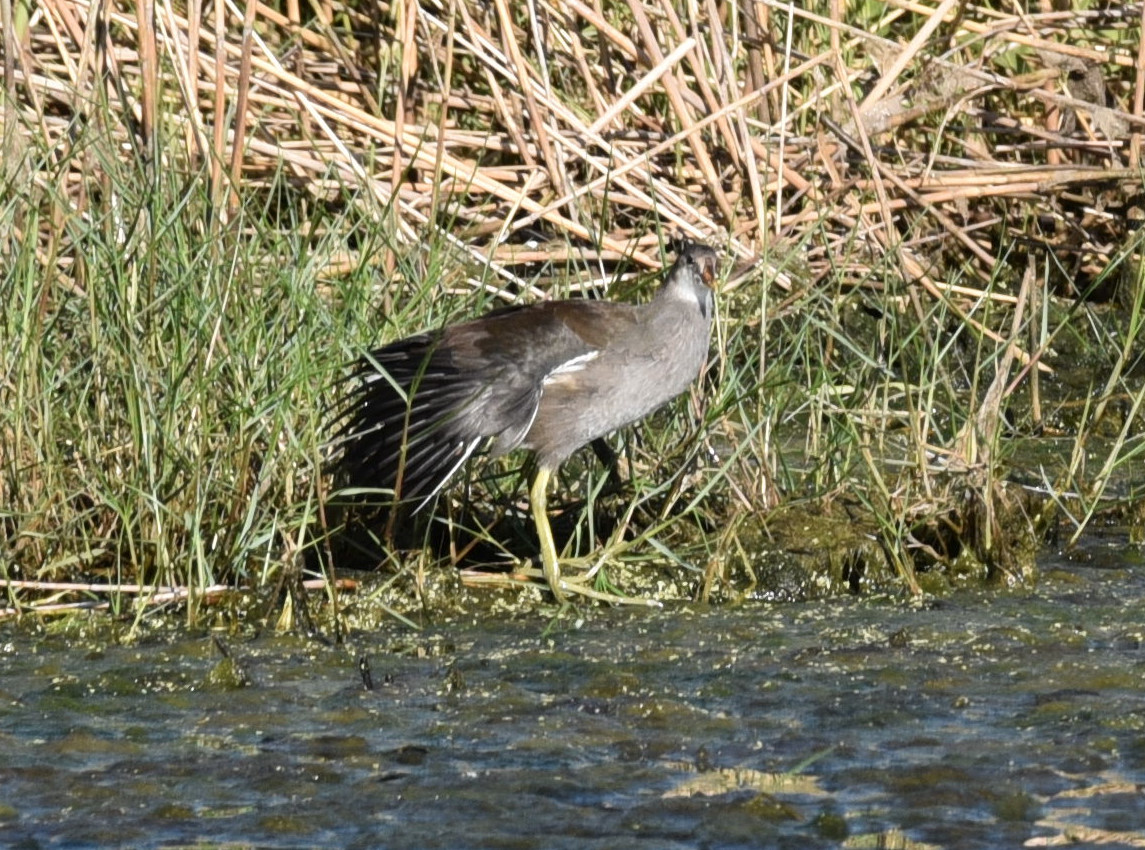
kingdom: Animalia
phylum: Chordata
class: Aves
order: Gruiformes
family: Rallidae
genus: Gallinula
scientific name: Gallinula chloropus
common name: Common moorhen
